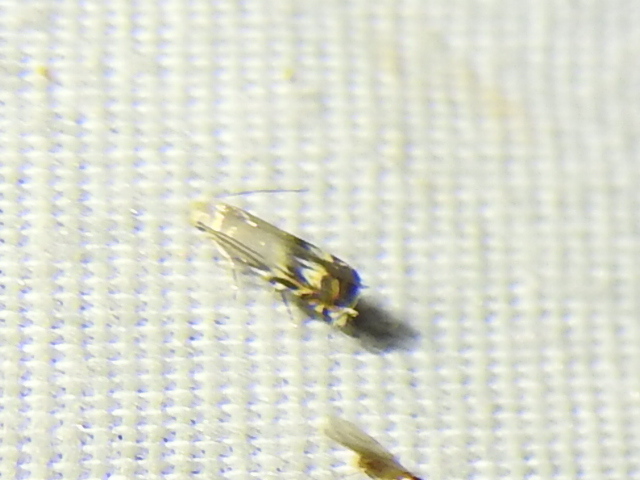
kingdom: Animalia
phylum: Arthropoda
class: Insecta
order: Lepidoptera
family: Gelechiidae
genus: Calliprora
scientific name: Calliprora sexstrigella
